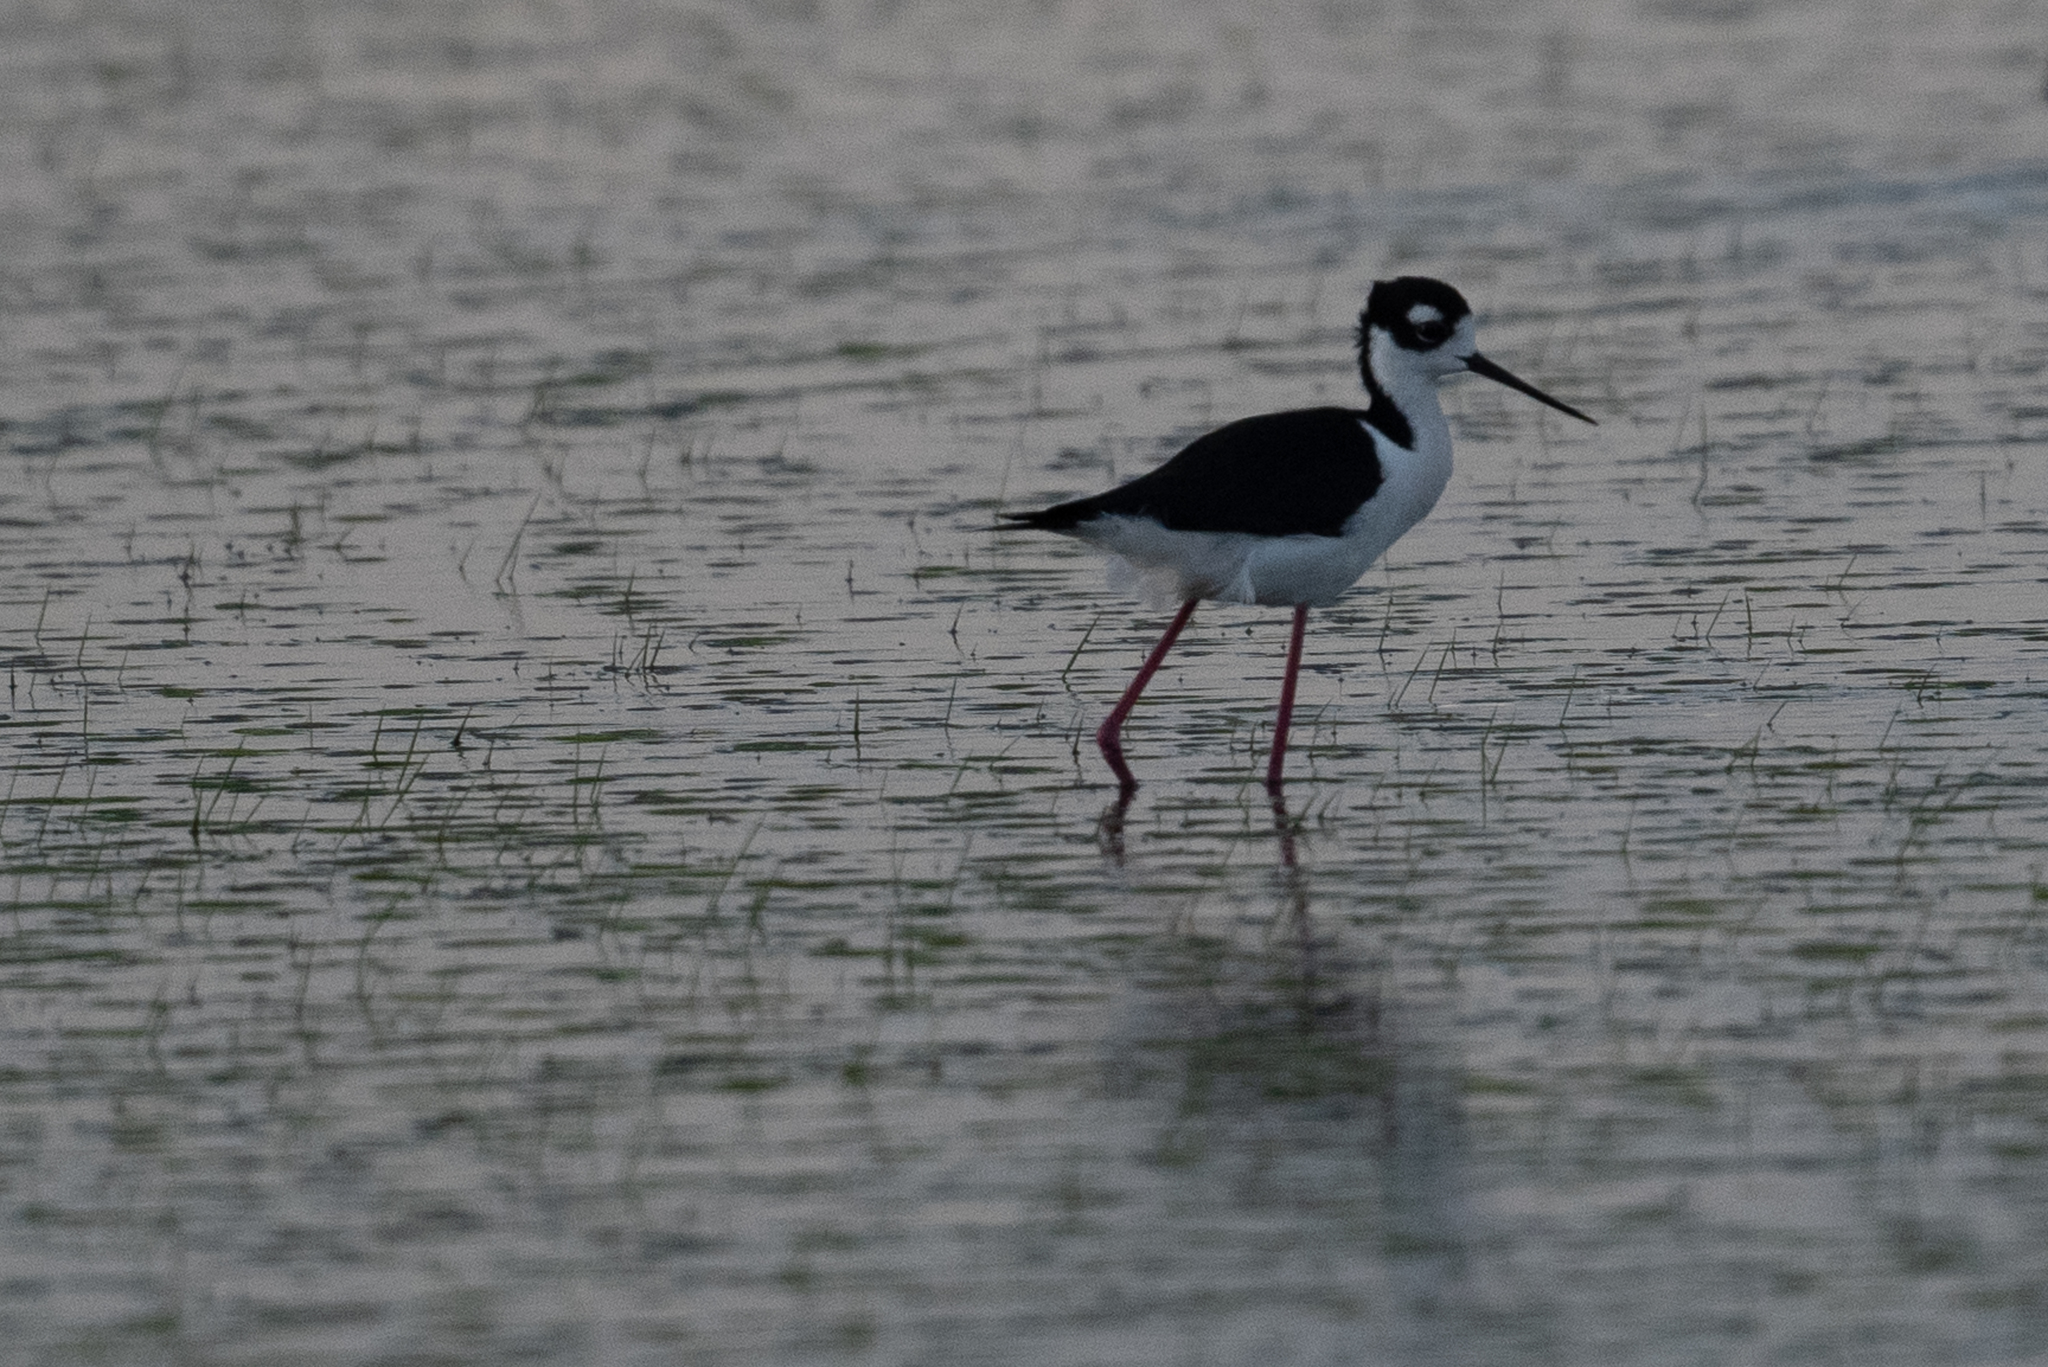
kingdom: Animalia
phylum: Chordata
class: Aves
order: Charadriiformes
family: Recurvirostridae
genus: Himantopus
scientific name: Himantopus mexicanus
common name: Black-necked stilt
